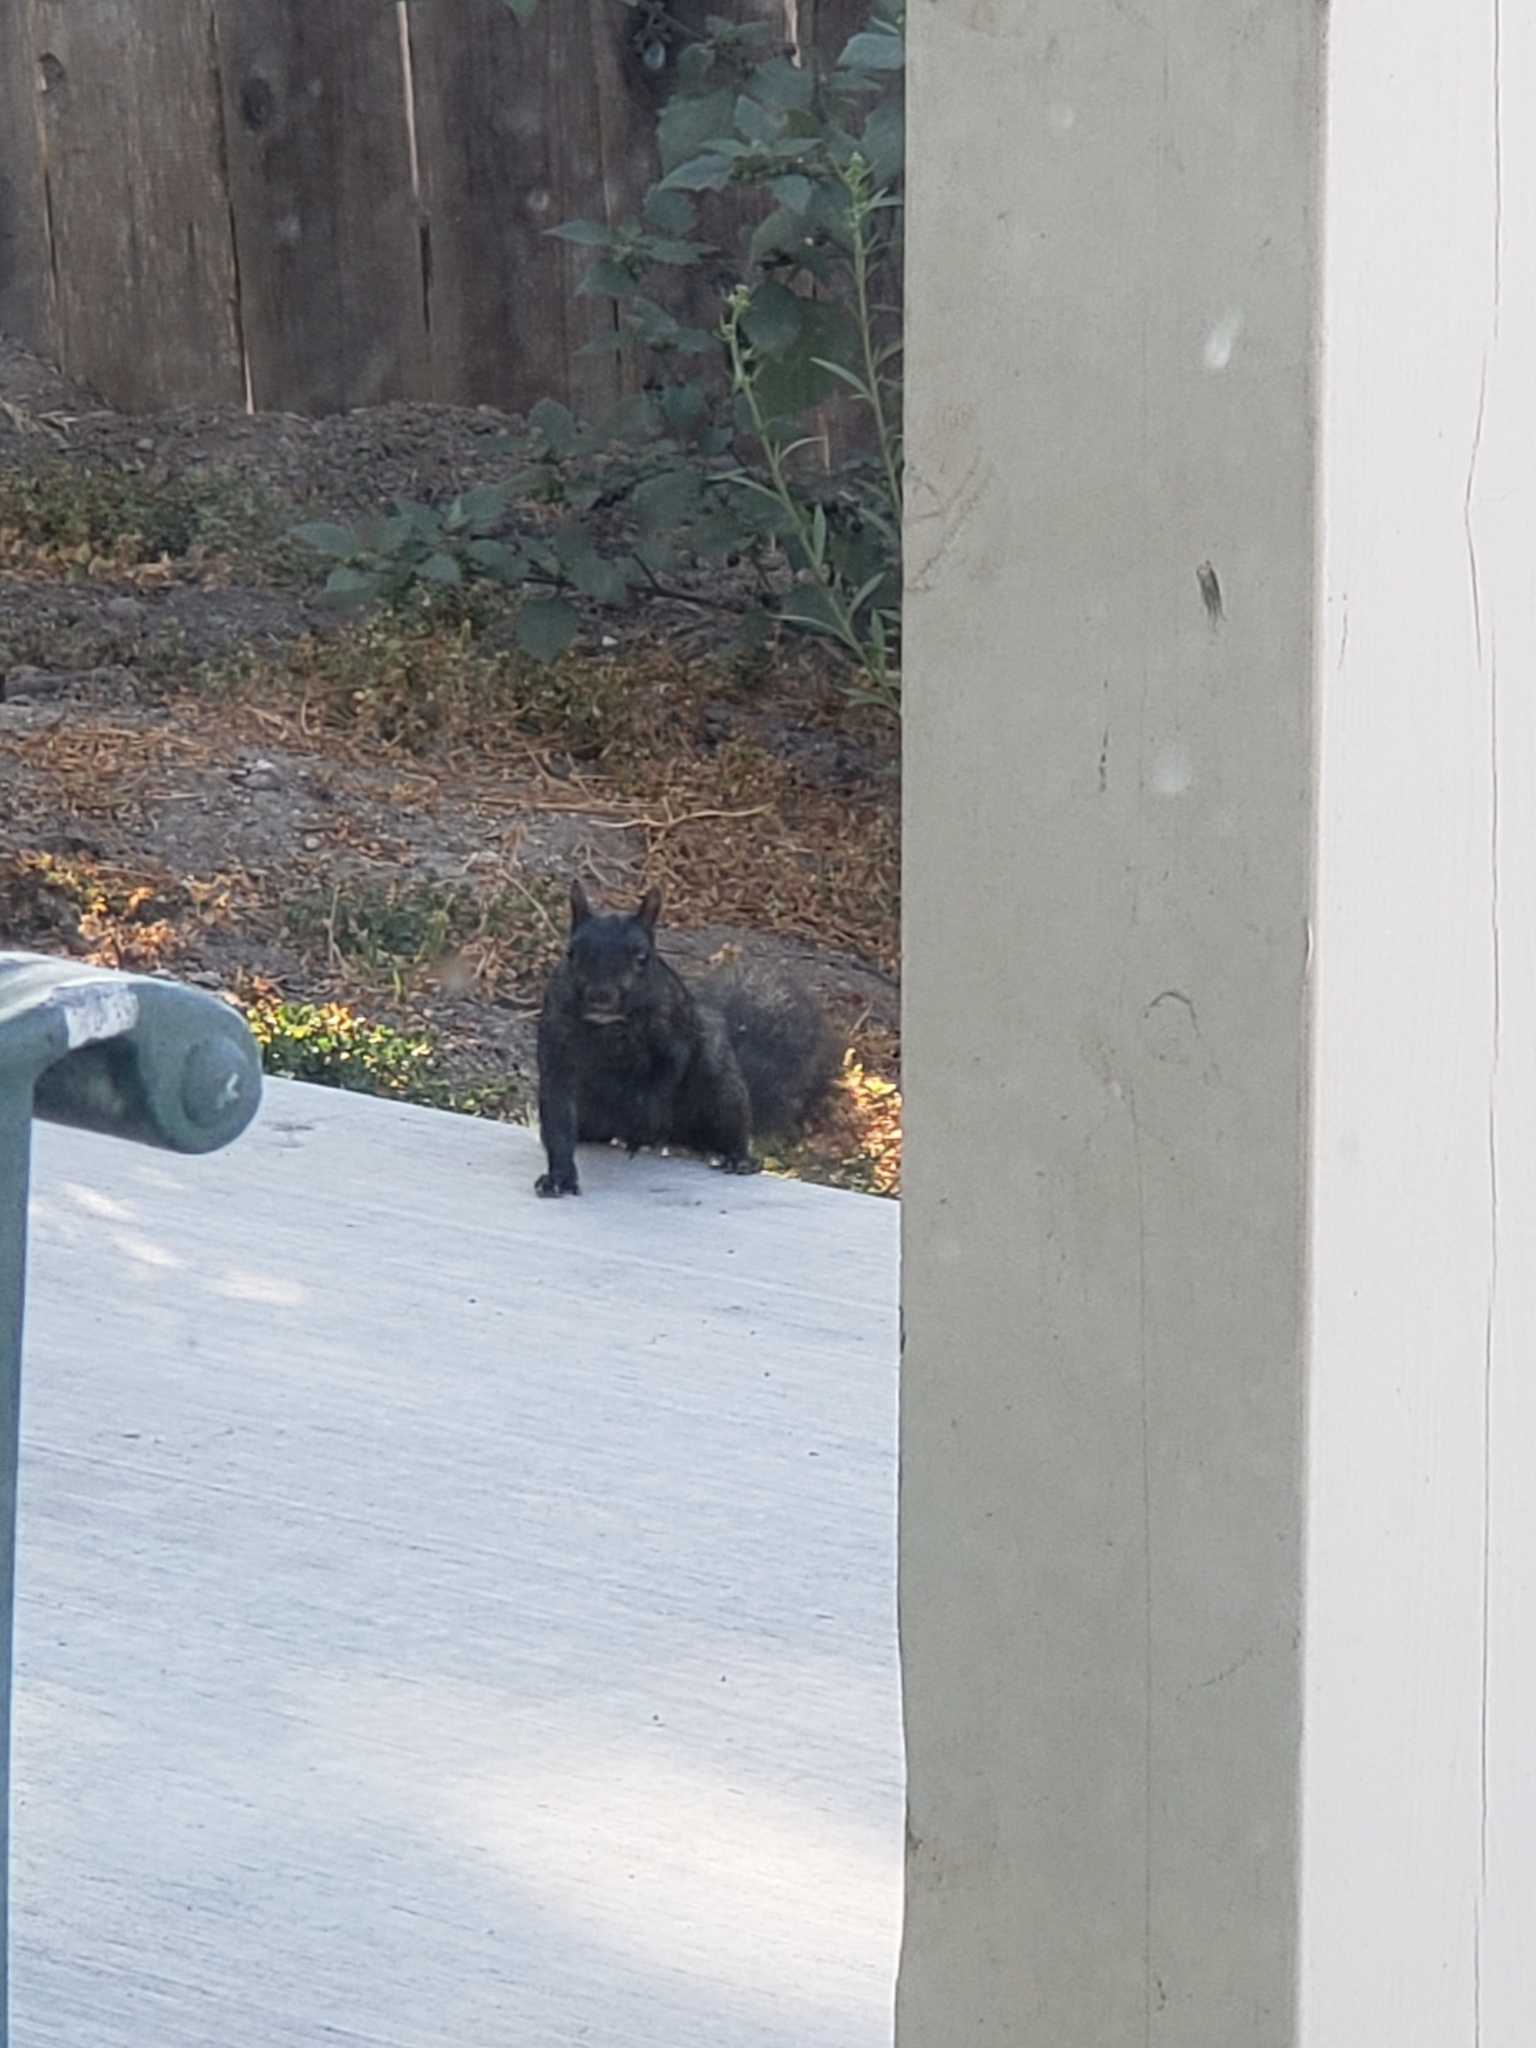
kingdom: Animalia
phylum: Chordata
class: Mammalia
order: Rodentia
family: Sciuridae
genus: Sciurus
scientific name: Sciurus carolinensis
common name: Eastern gray squirrel
